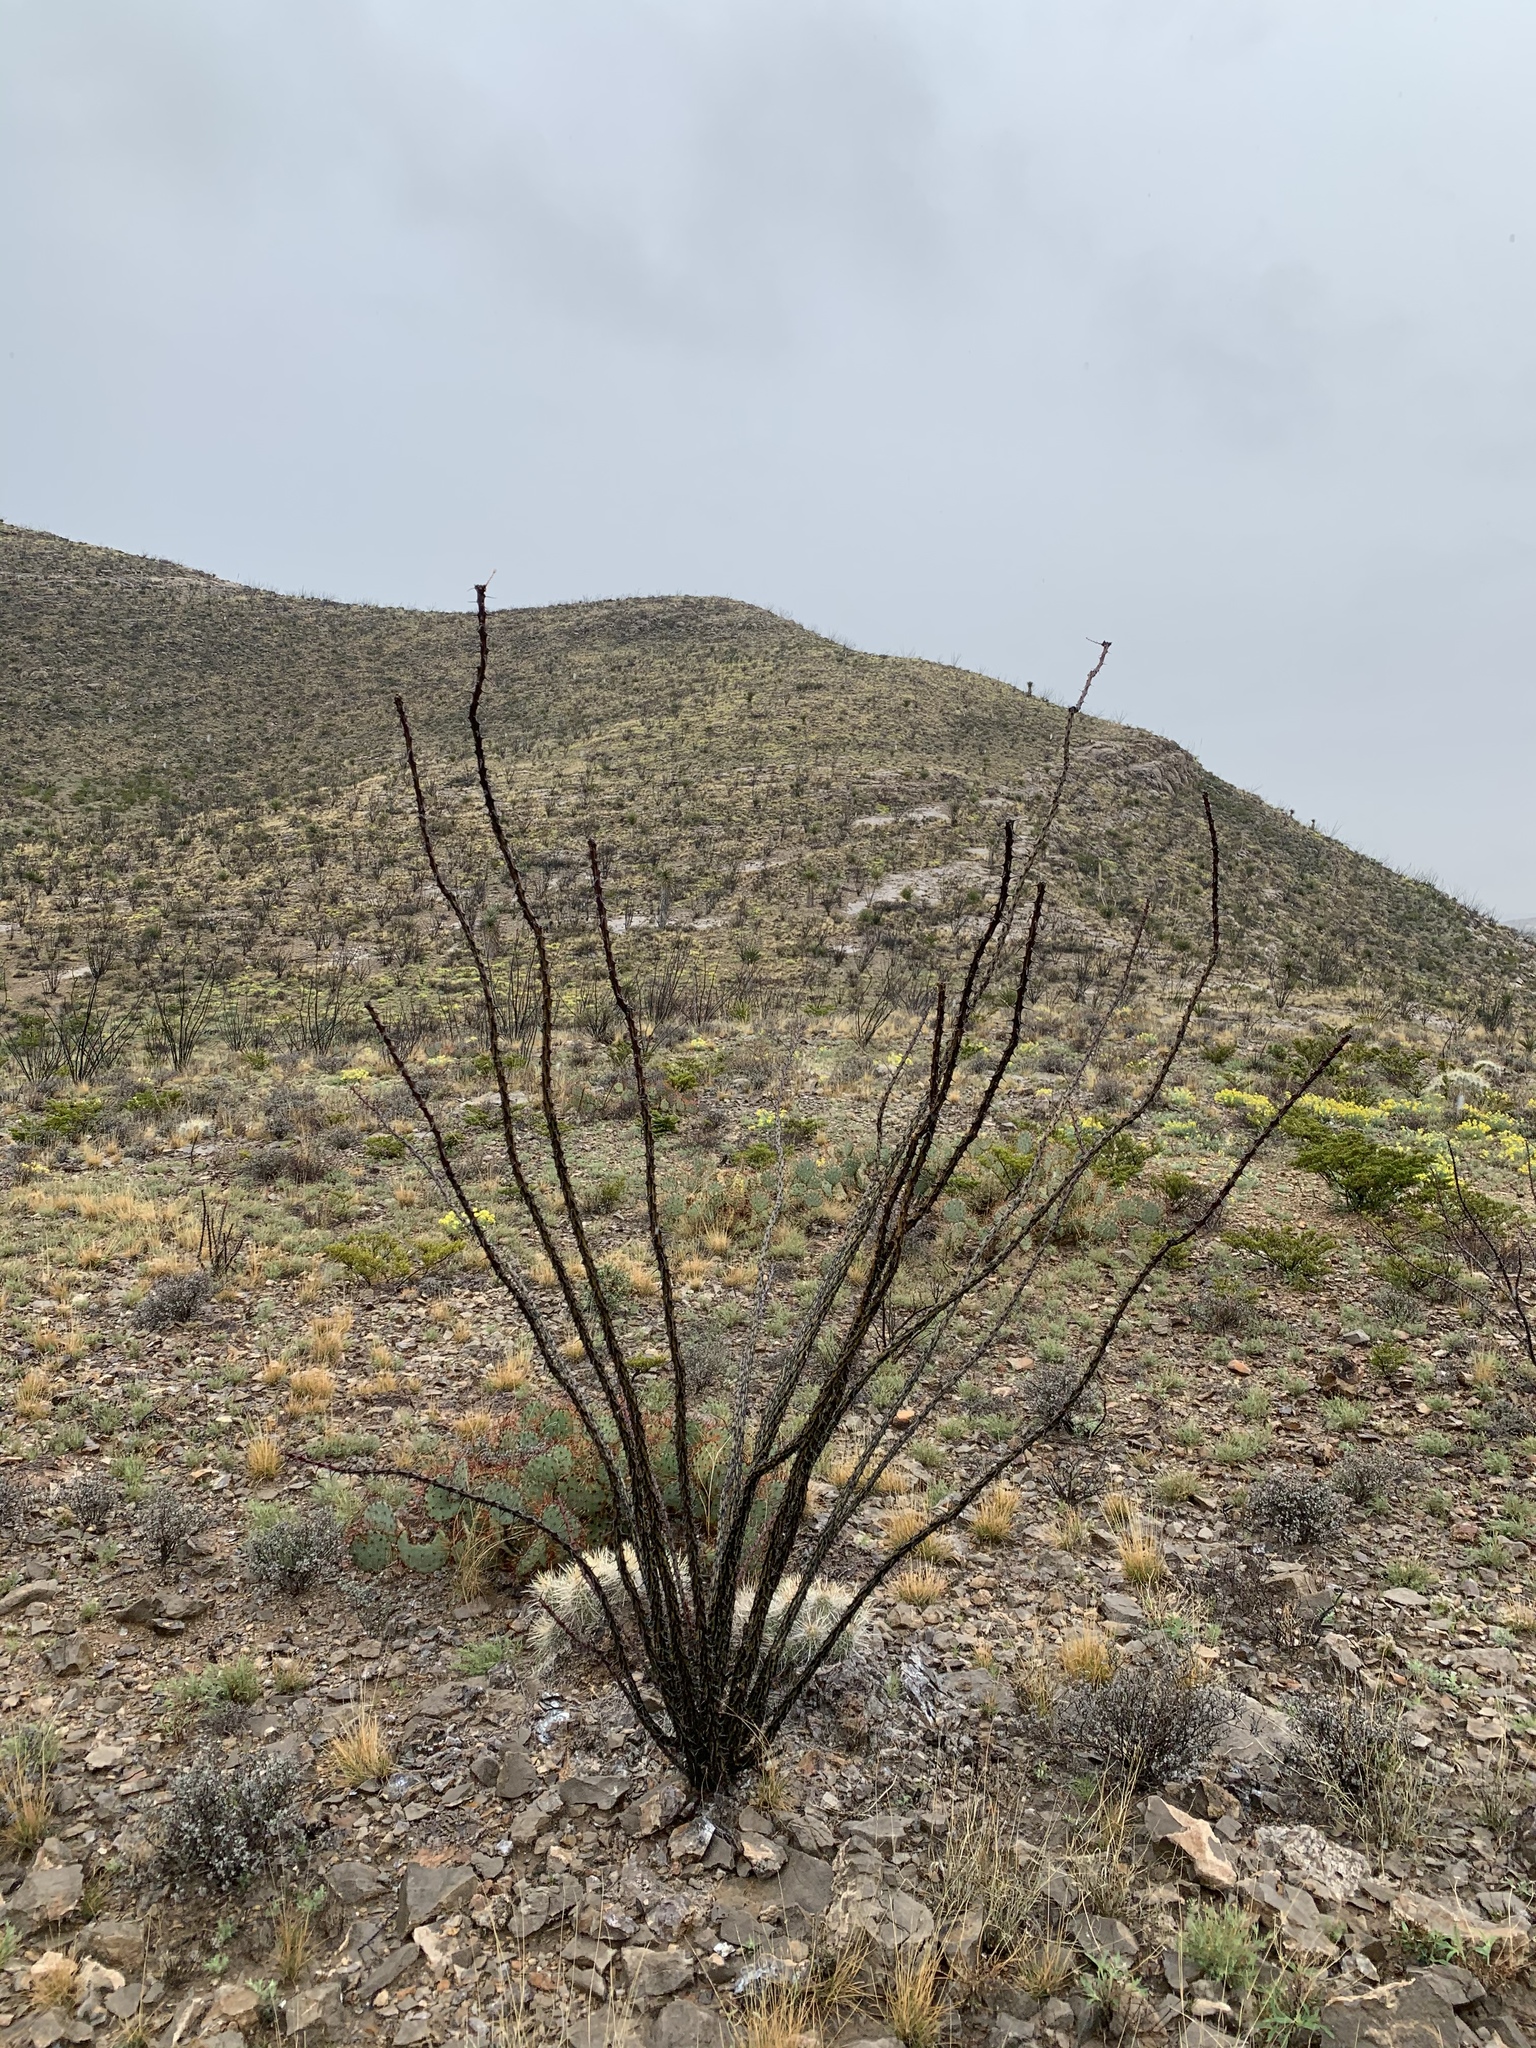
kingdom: Plantae
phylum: Tracheophyta
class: Magnoliopsida
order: Ericales
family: Fouquieriaceae
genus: Fouquieria
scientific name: Fouquieria splendens
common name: Vine-cactus
